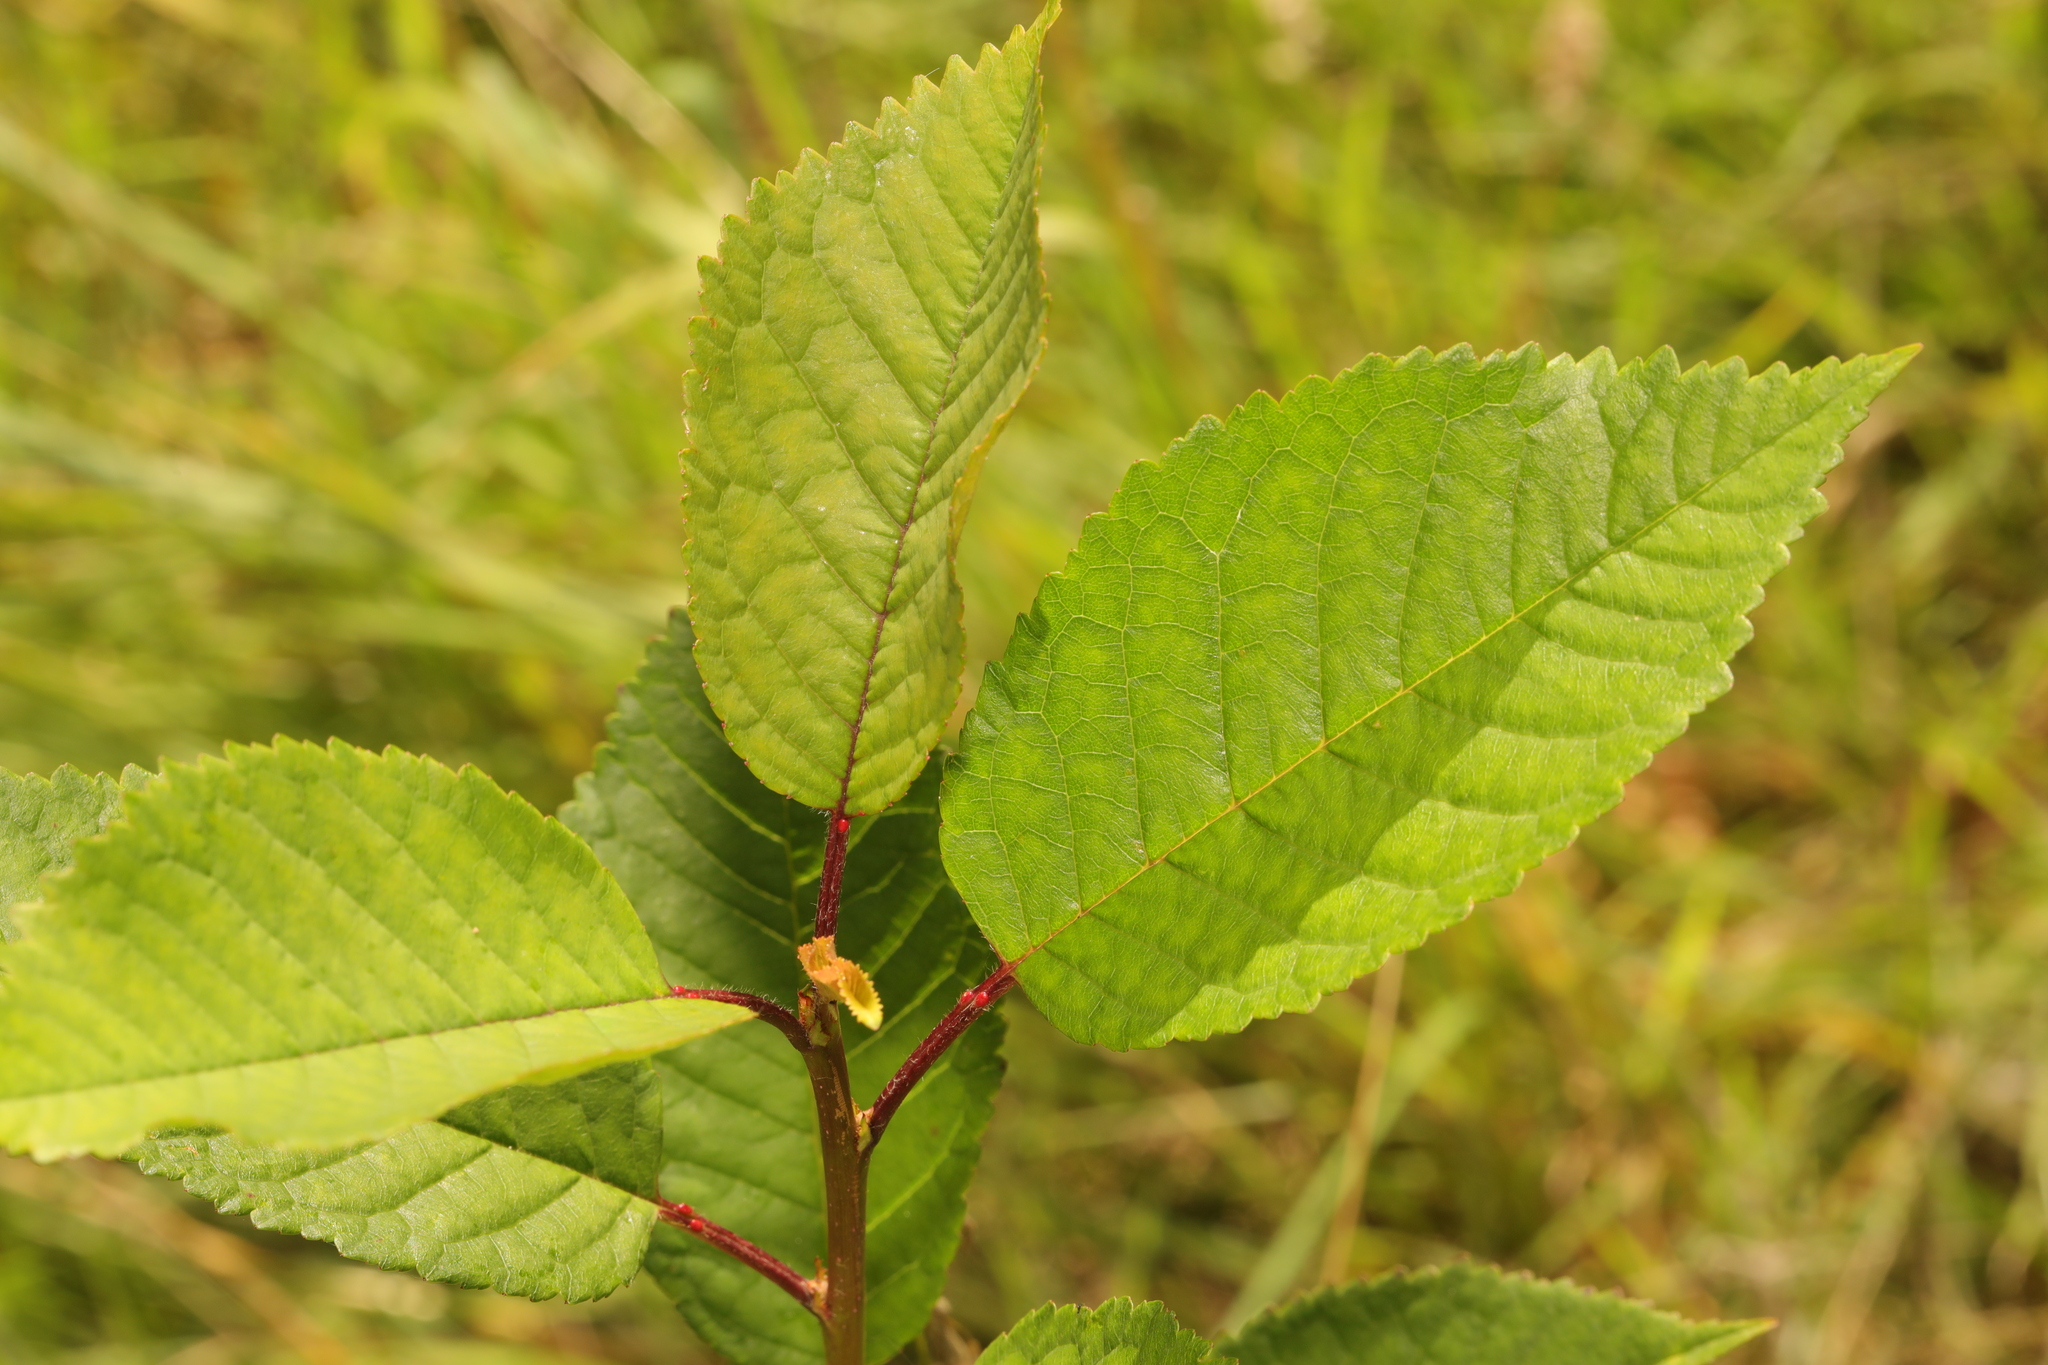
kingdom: Plantae
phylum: Tracheophyta
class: Magnoliopsida
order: Rosales
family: Rosaceae
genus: Prunus
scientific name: Prunus avium
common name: Sweet cherry
